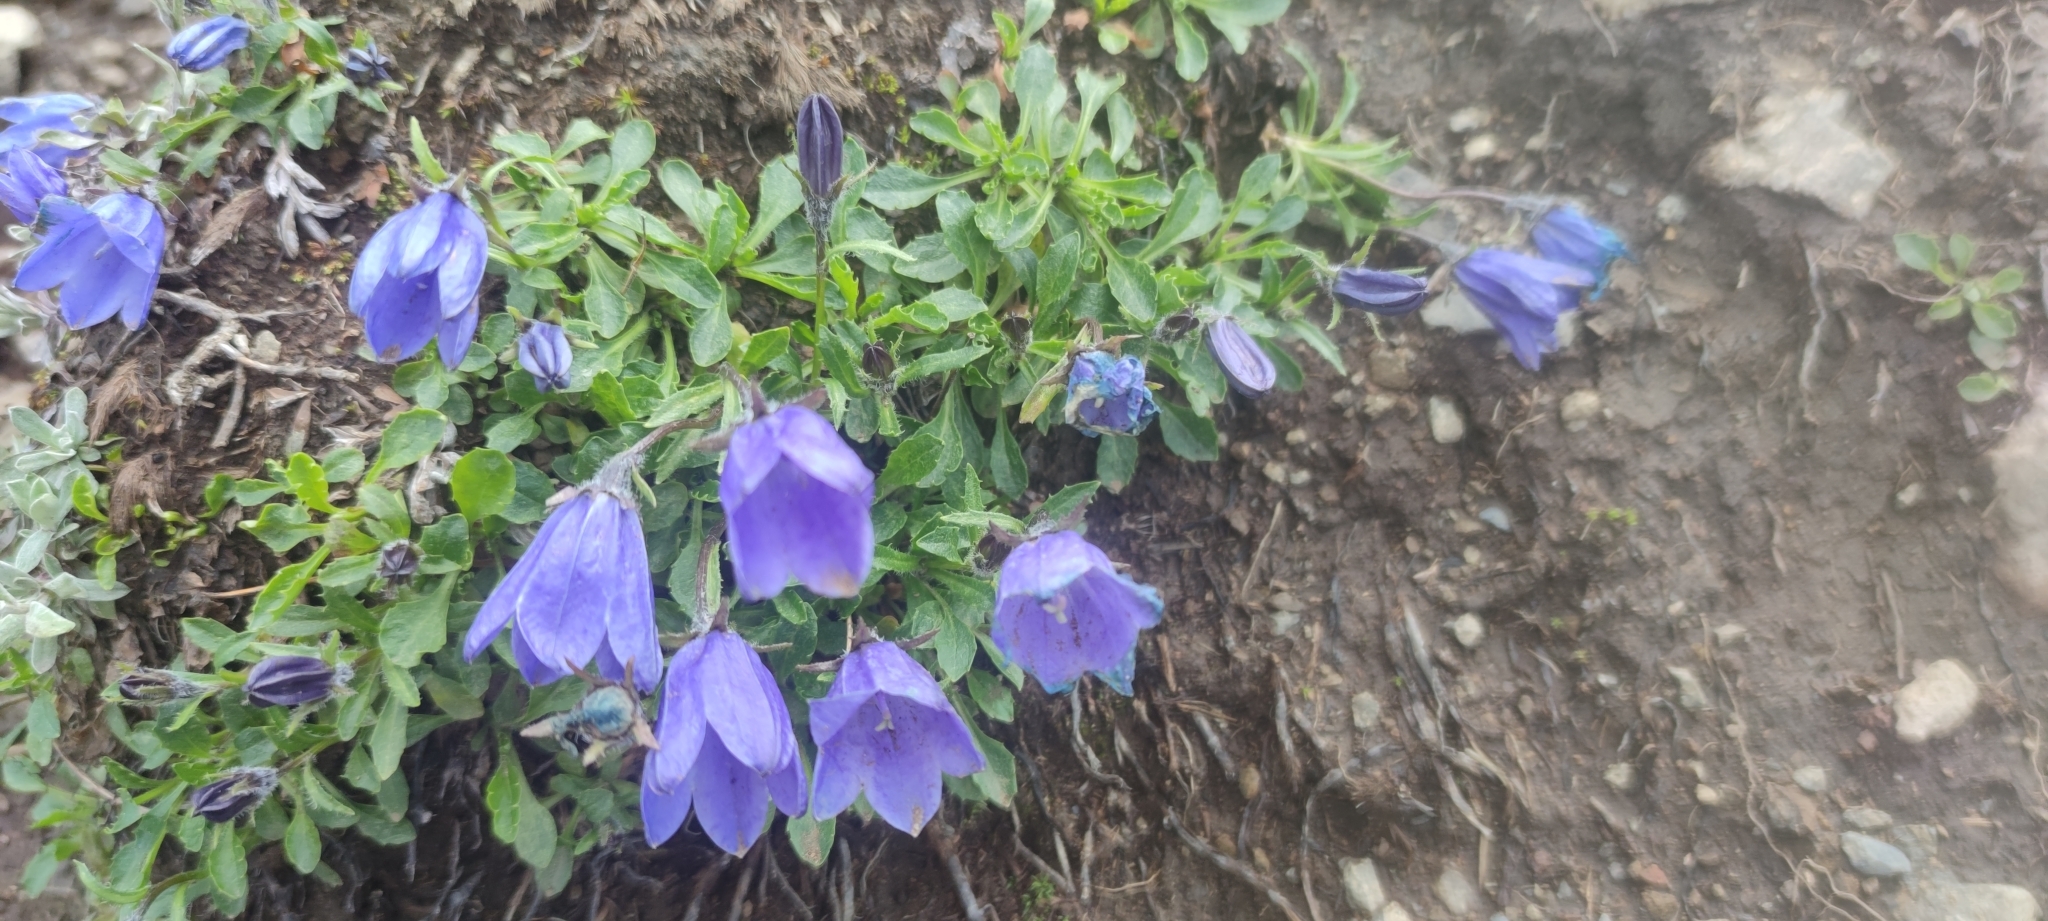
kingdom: Plantae
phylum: Tracheophyta
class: Magnoliopsida
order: Asterales
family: Campanulaceae
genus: Campanula
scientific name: Campanula lasiocarpa
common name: Mountain harebell
